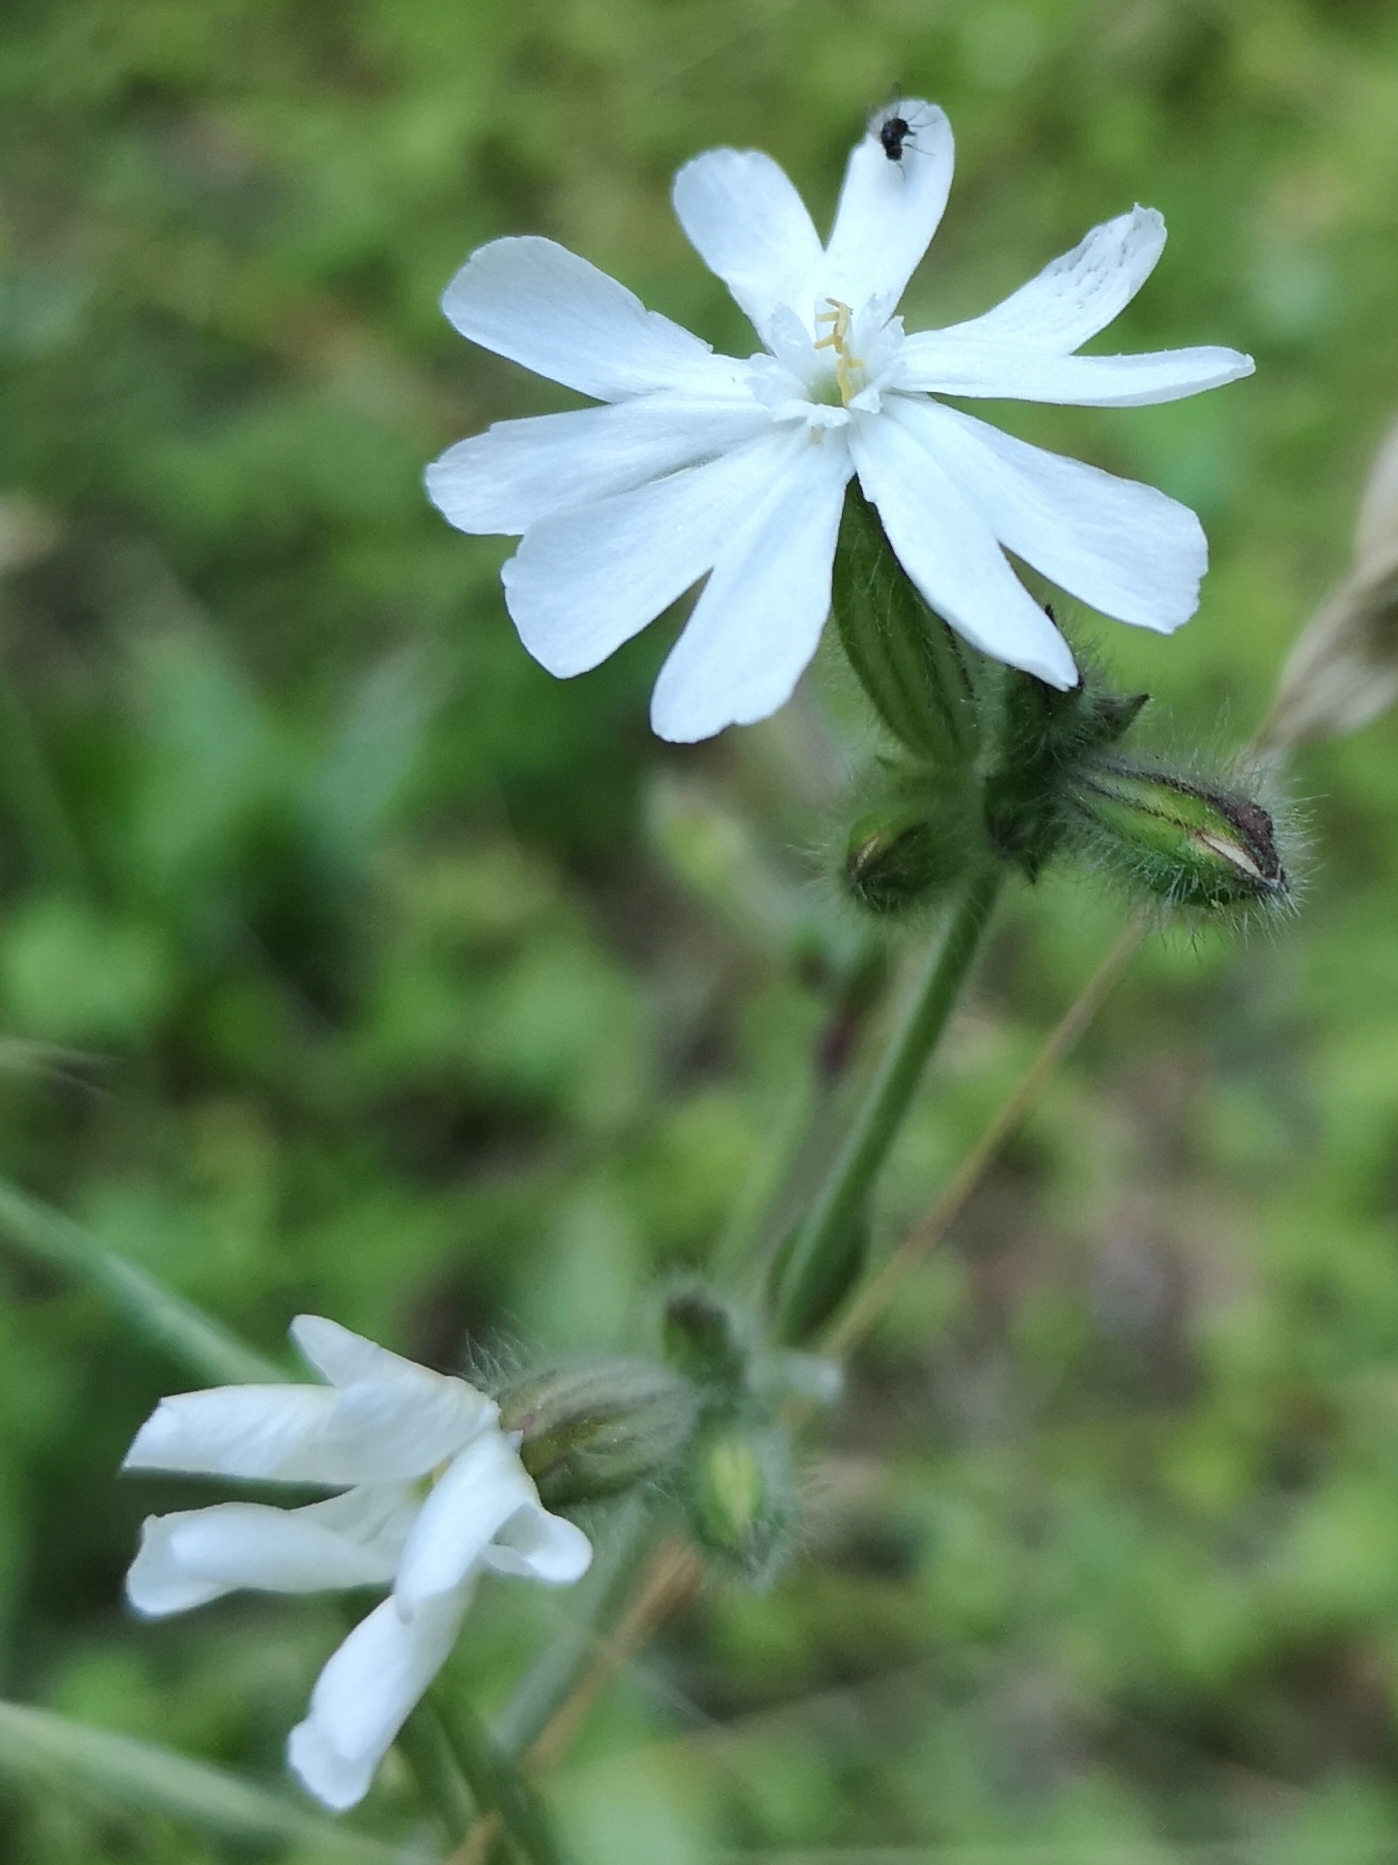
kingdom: Plantae
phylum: Tracheophyta
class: Magnoliopsida
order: Caryophyllales
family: Caryophyllaceae
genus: Silene
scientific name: Silene latifolia
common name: White campion
